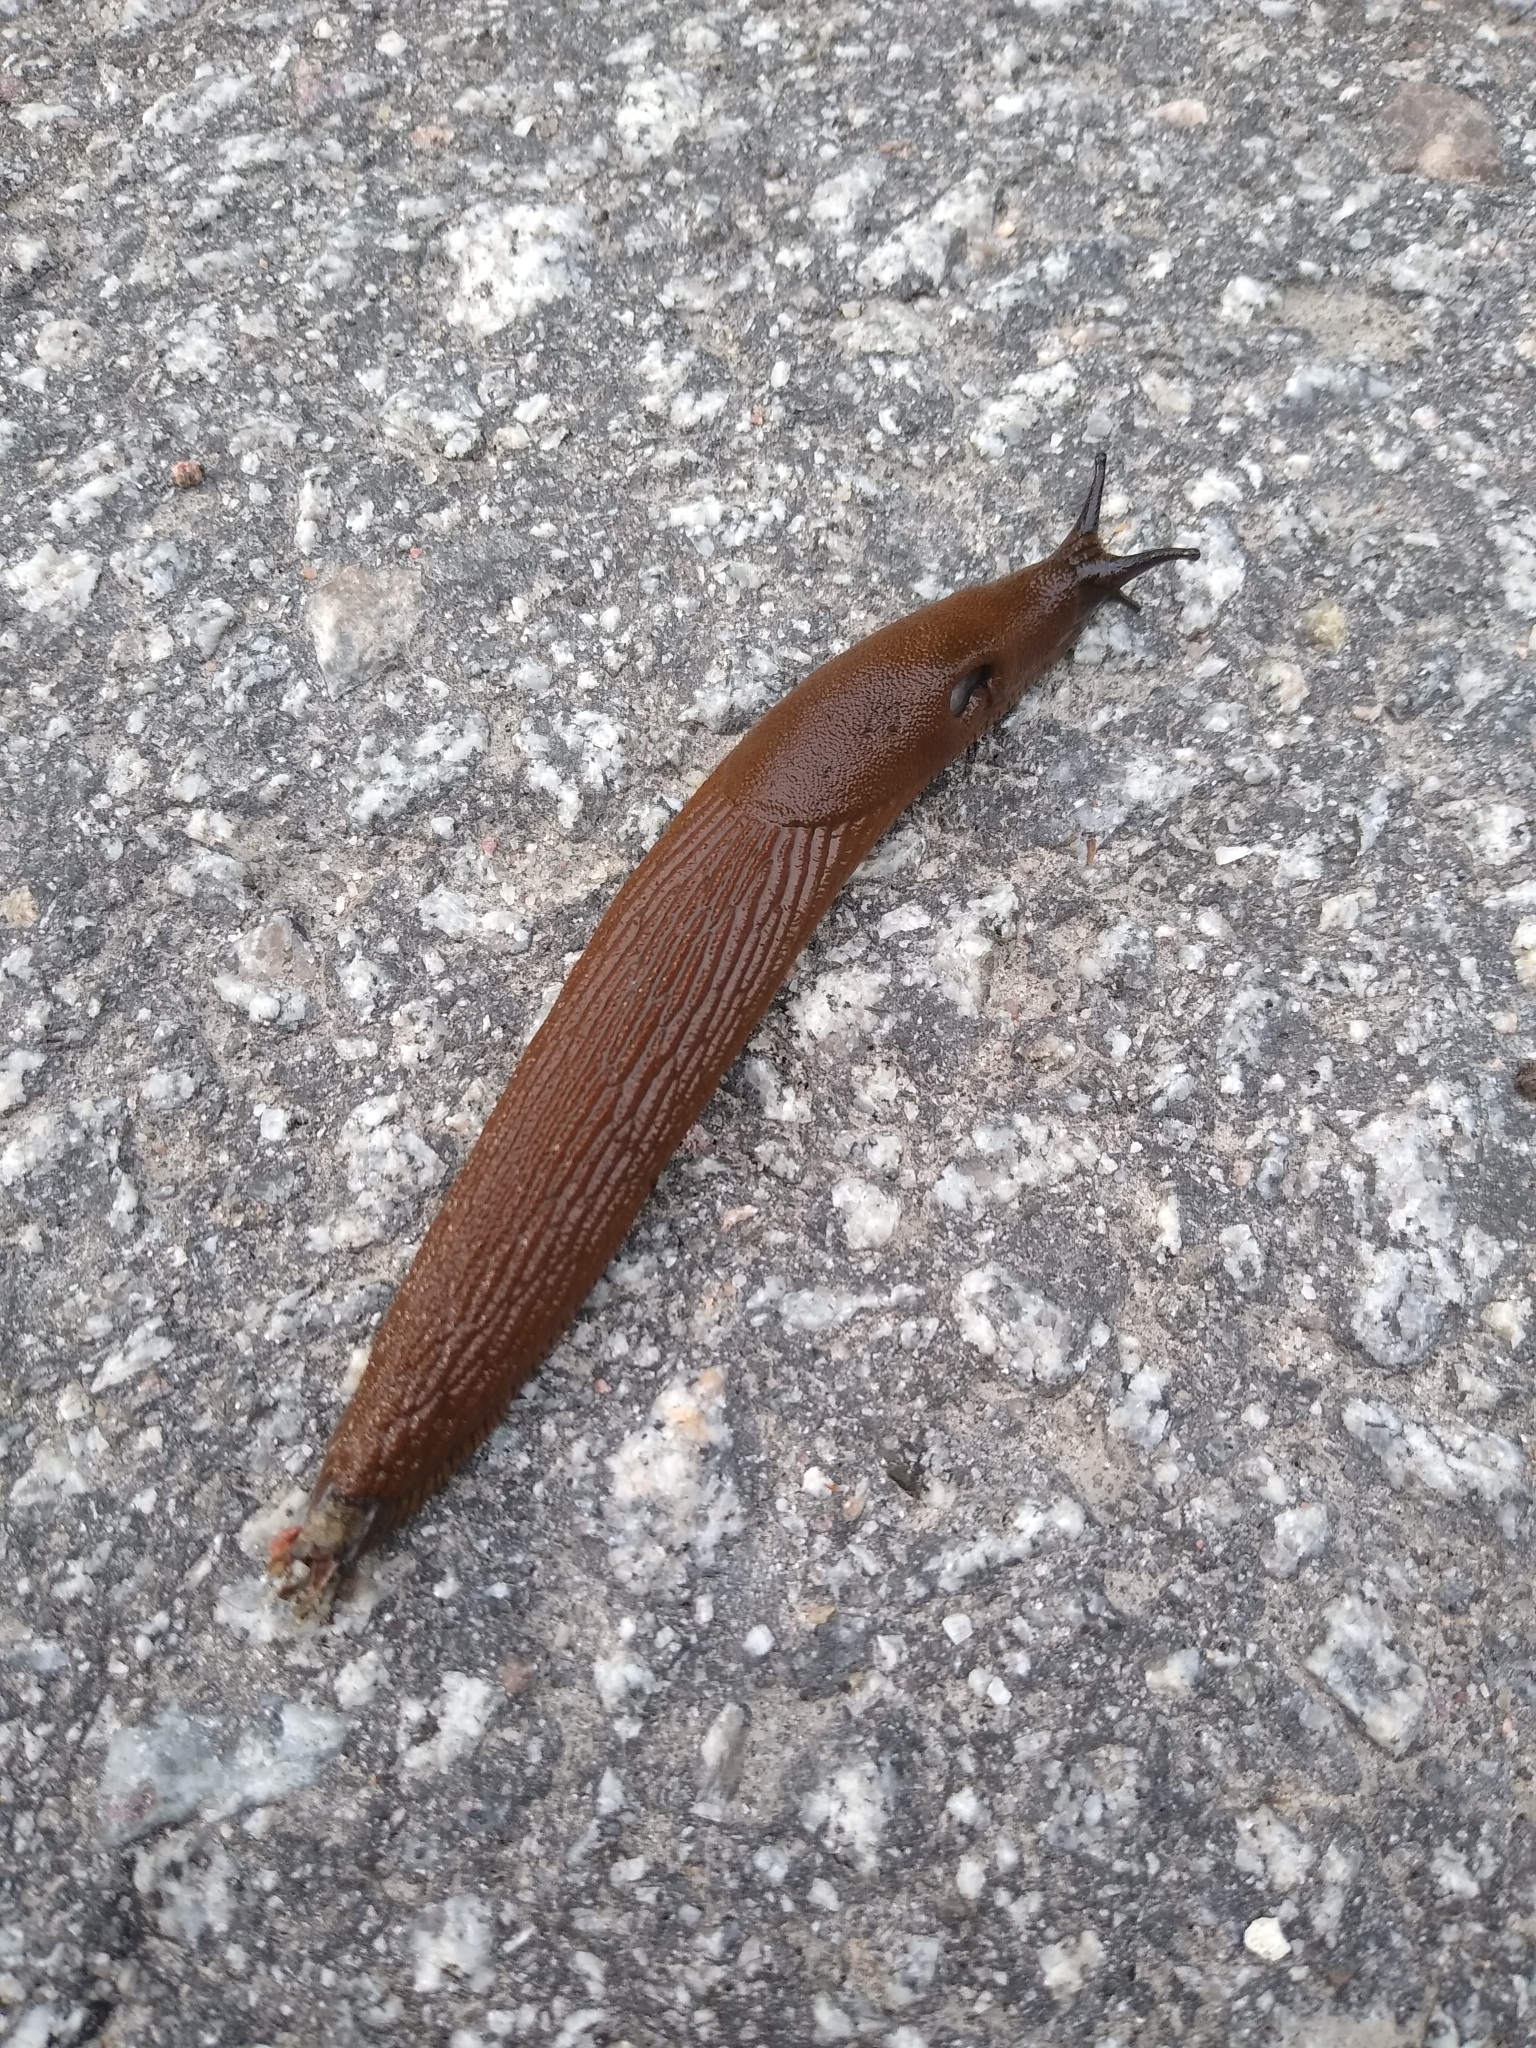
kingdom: Animalia
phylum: Mollusca
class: Gastropoda
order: Stylommatophora
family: Arionidae
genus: Arion
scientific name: Arion vulgaris
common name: Lusitanian slug
